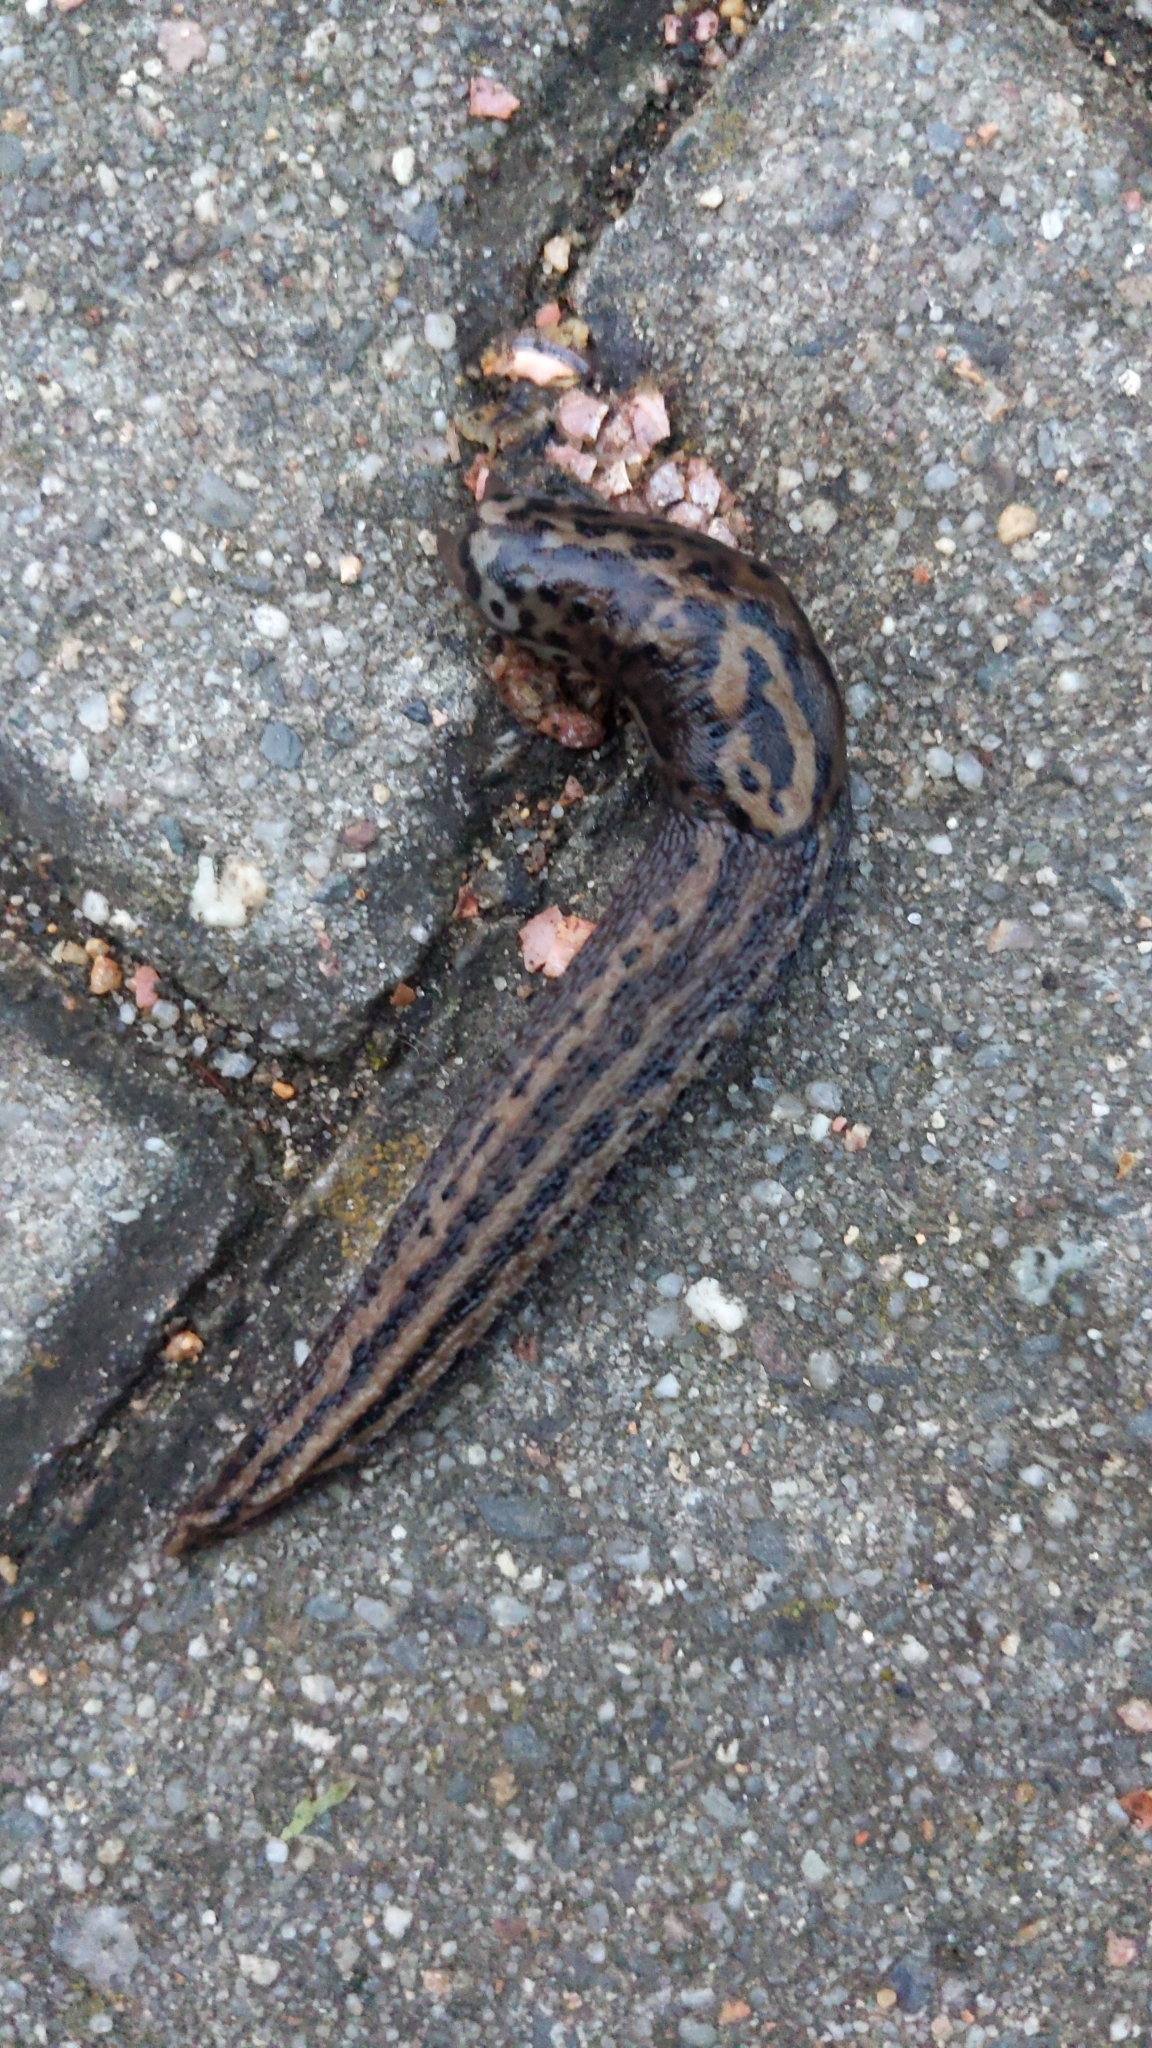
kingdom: Animalia
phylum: Mollusca
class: Gastropoda
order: Stylommatophora
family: Limacidae
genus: Limax
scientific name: Limax maximus
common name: Great grey slug
